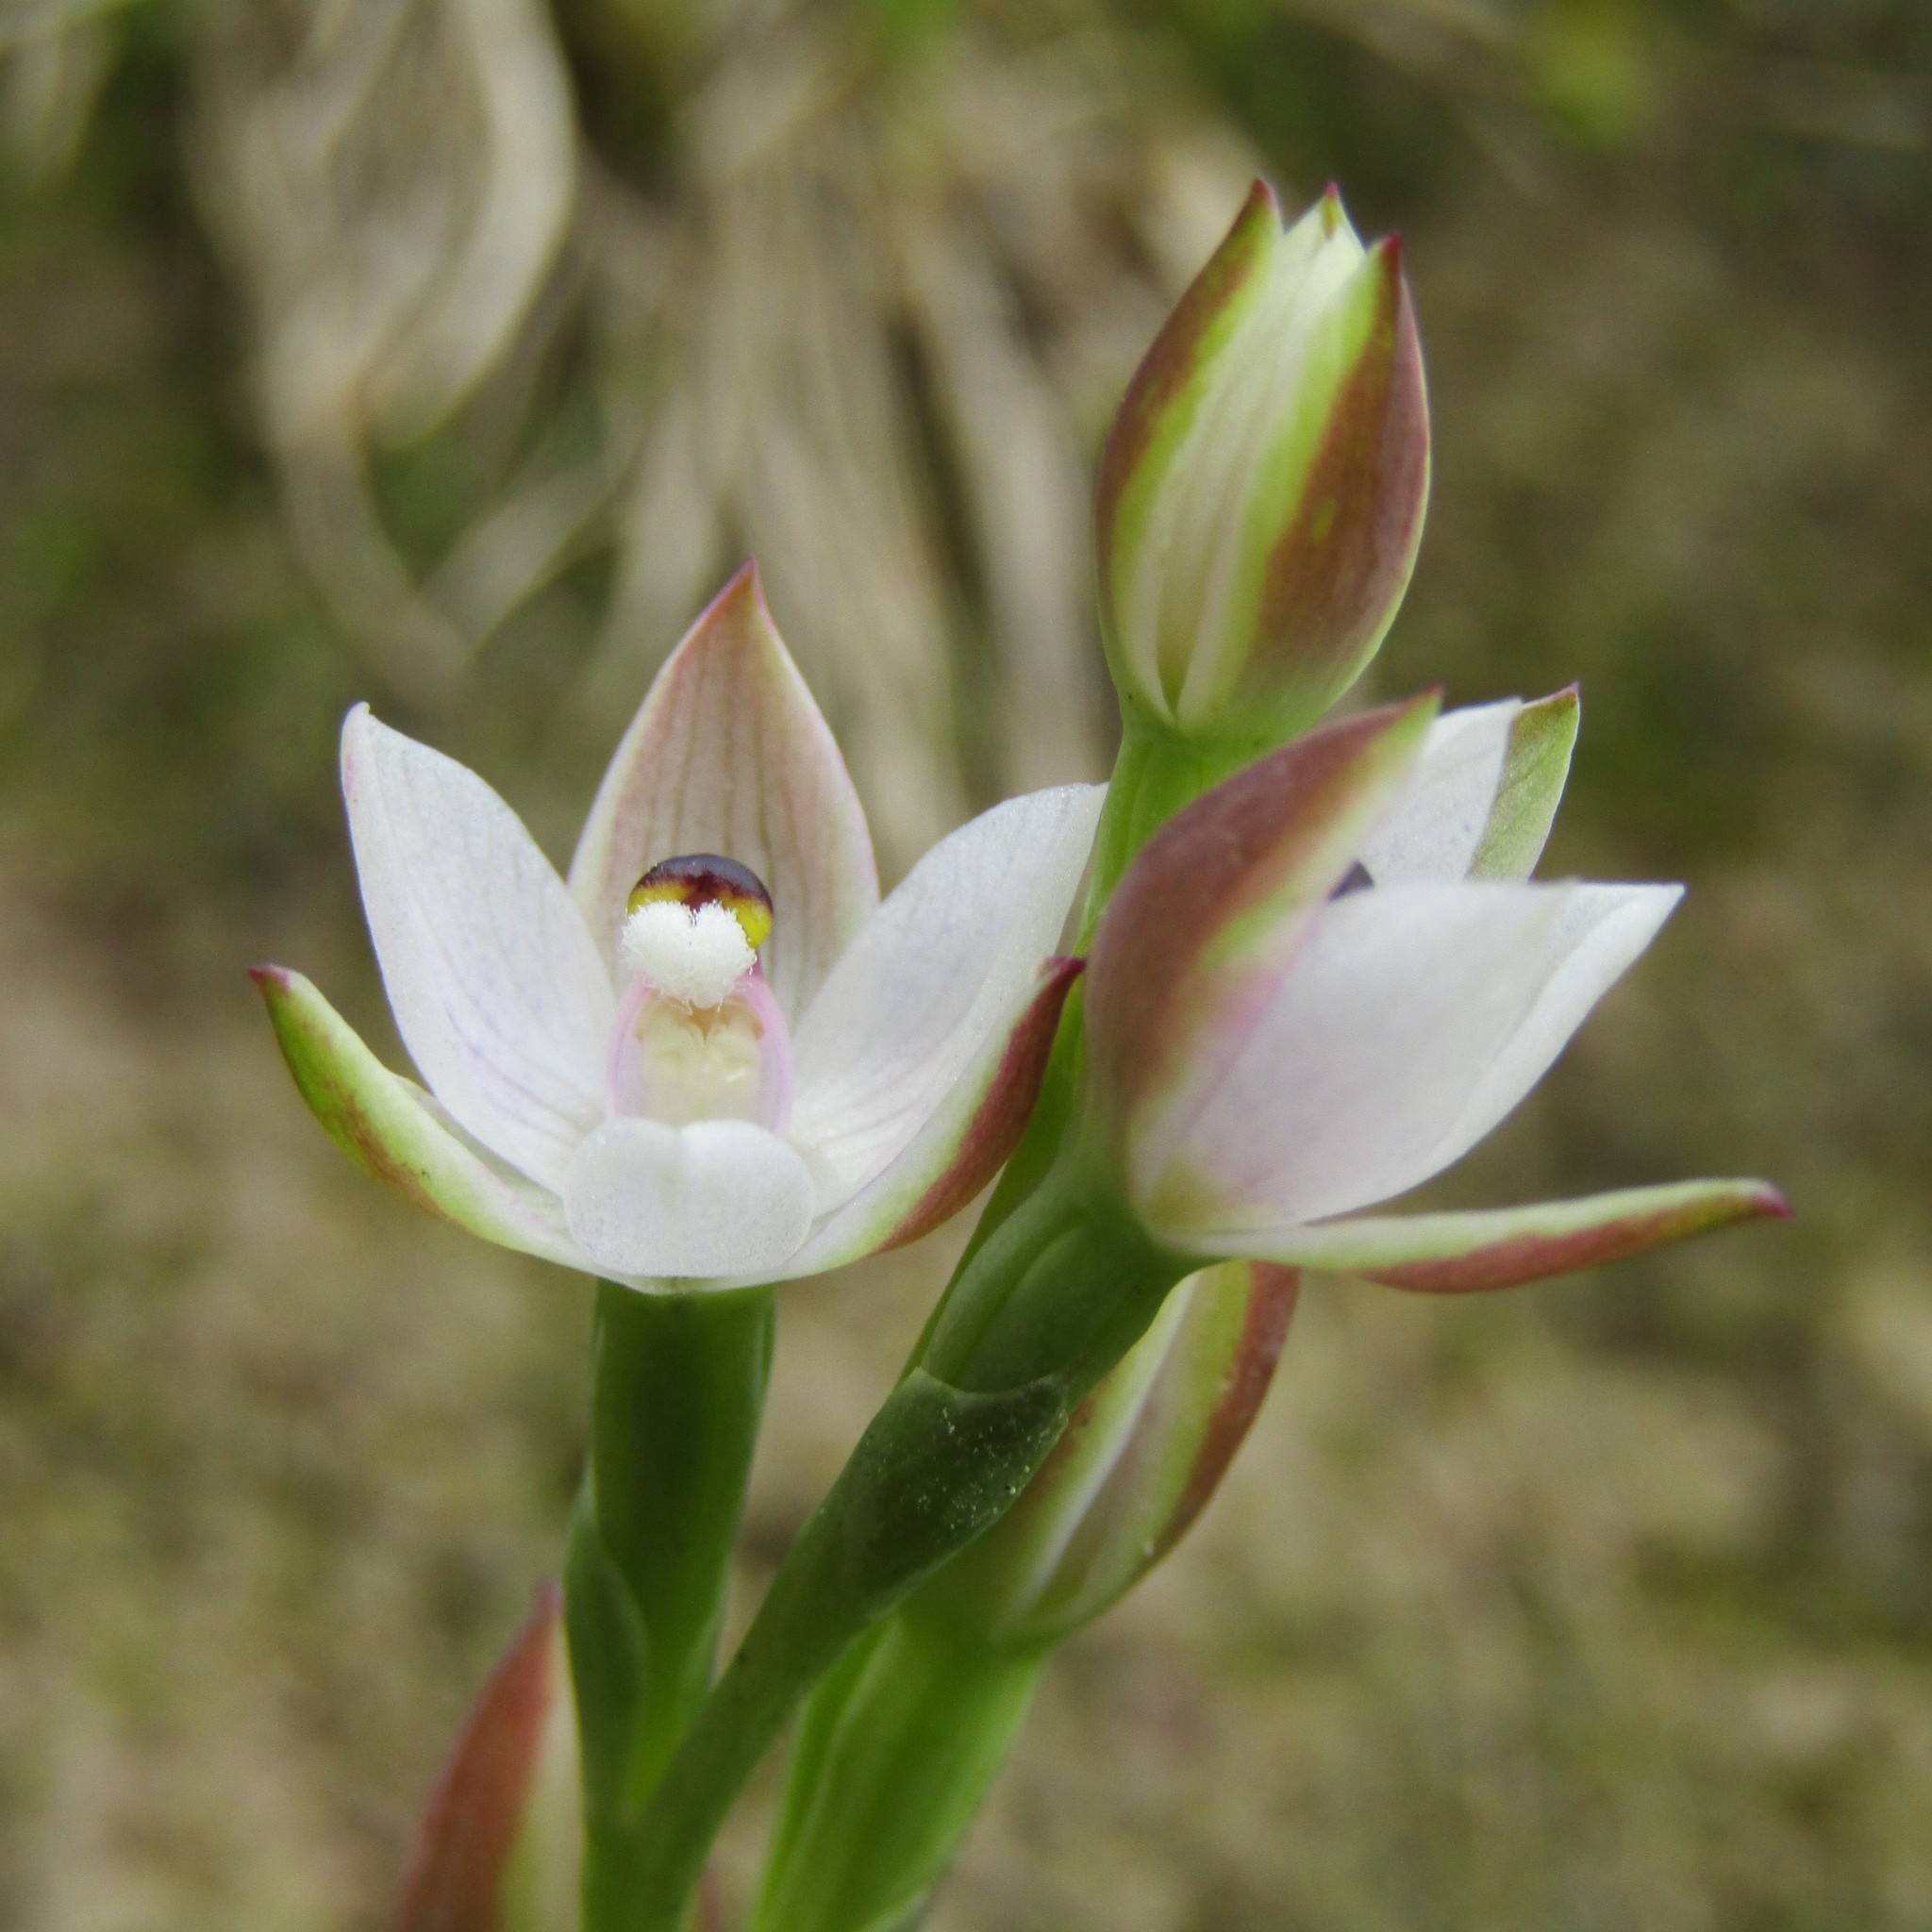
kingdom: Plantae
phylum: Tracheophyta
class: Liliopsida
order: Asparagales
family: Orchidaceae
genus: Thelymitra
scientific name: Thelymitra longifolia
